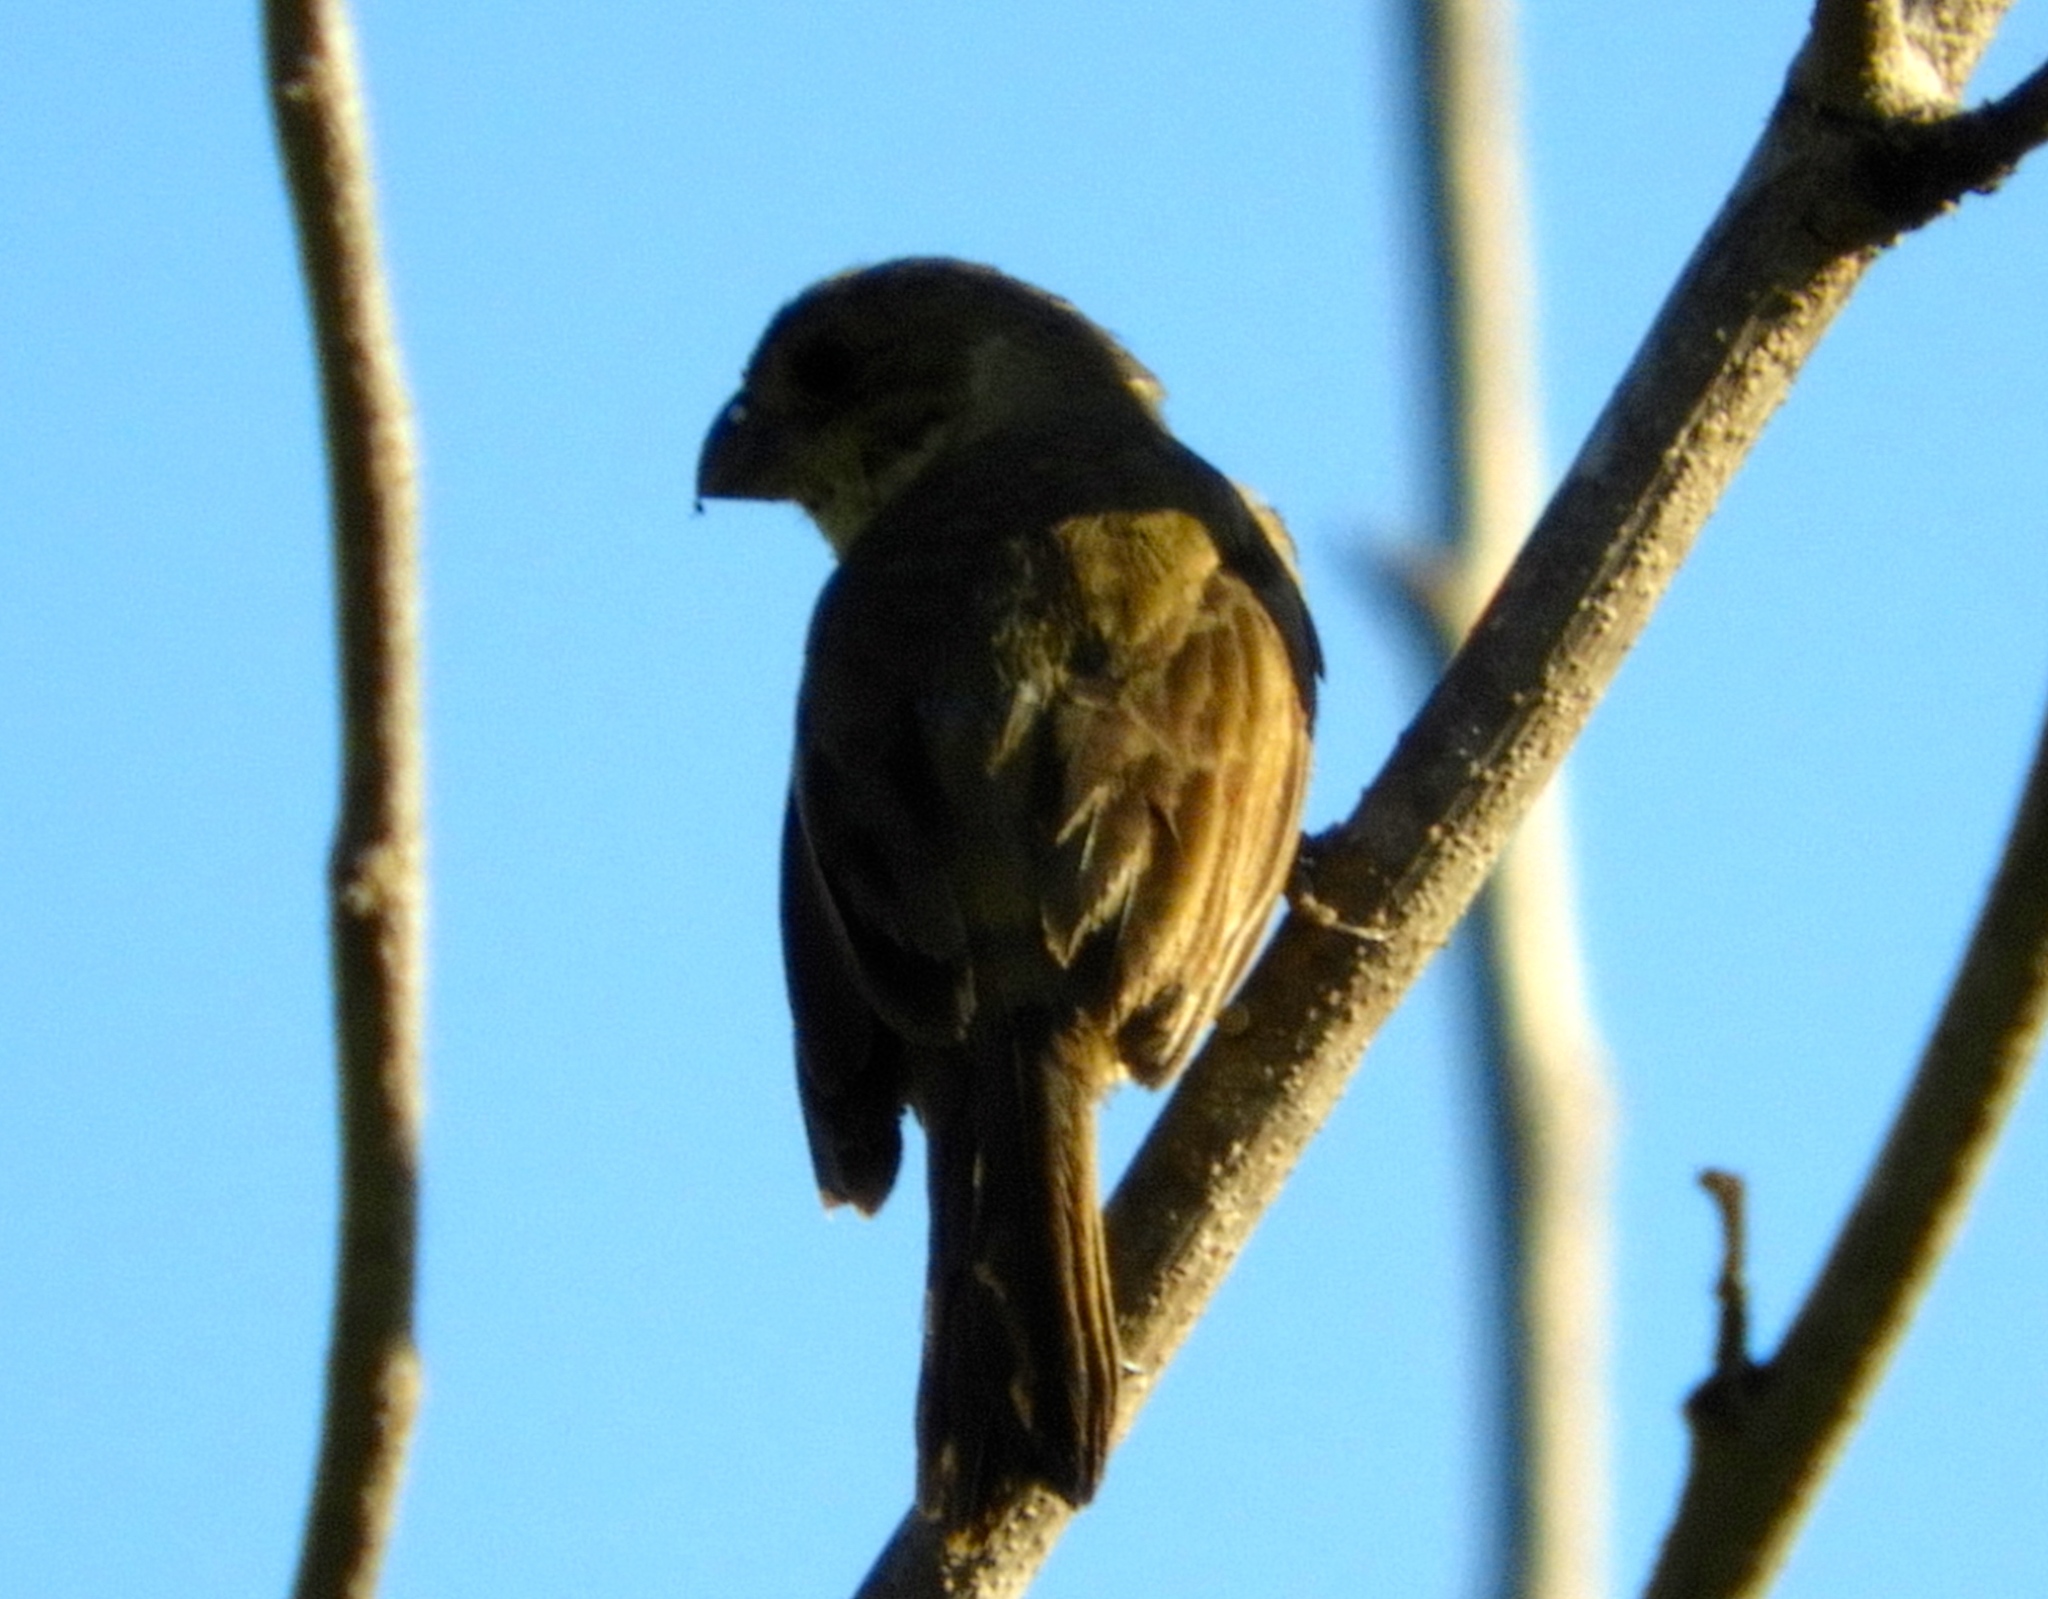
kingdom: Animalia
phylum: Chordata
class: Aves
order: Passeriformes
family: Thraupidae
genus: Sporophila
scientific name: Sporophila torqueola
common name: White-collared seedeater
